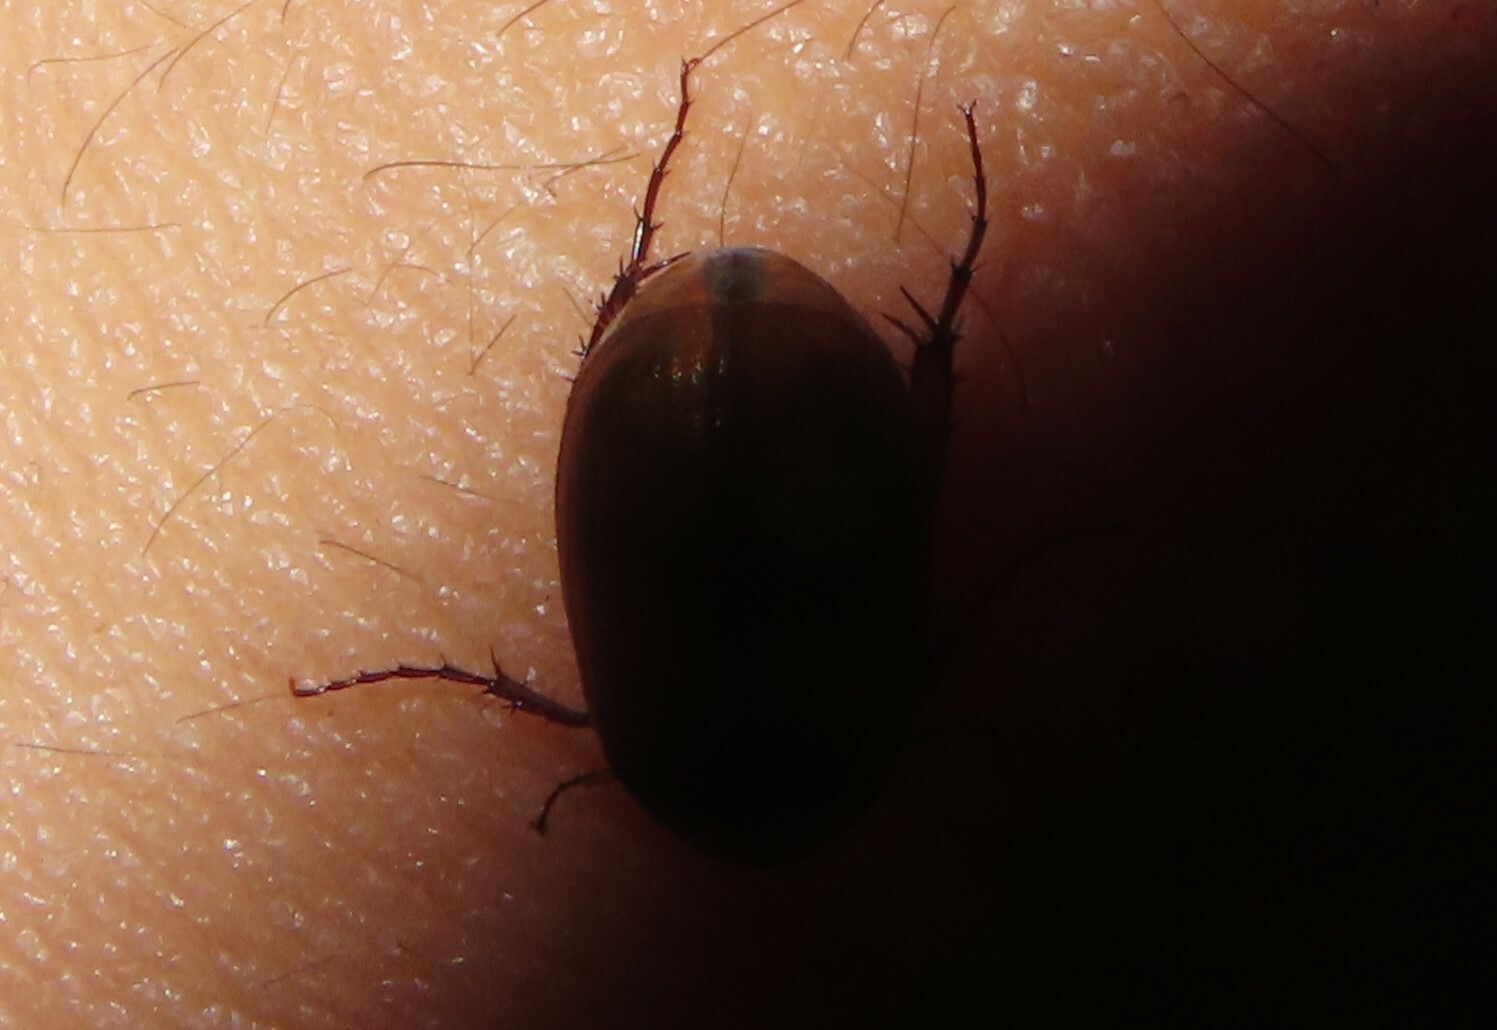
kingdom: Animalia
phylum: Arthropoda
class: Insecta
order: Coleoptera
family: Scarabaeidae
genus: Maladera
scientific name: Maladera formosae
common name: Asiatic garden beetle
